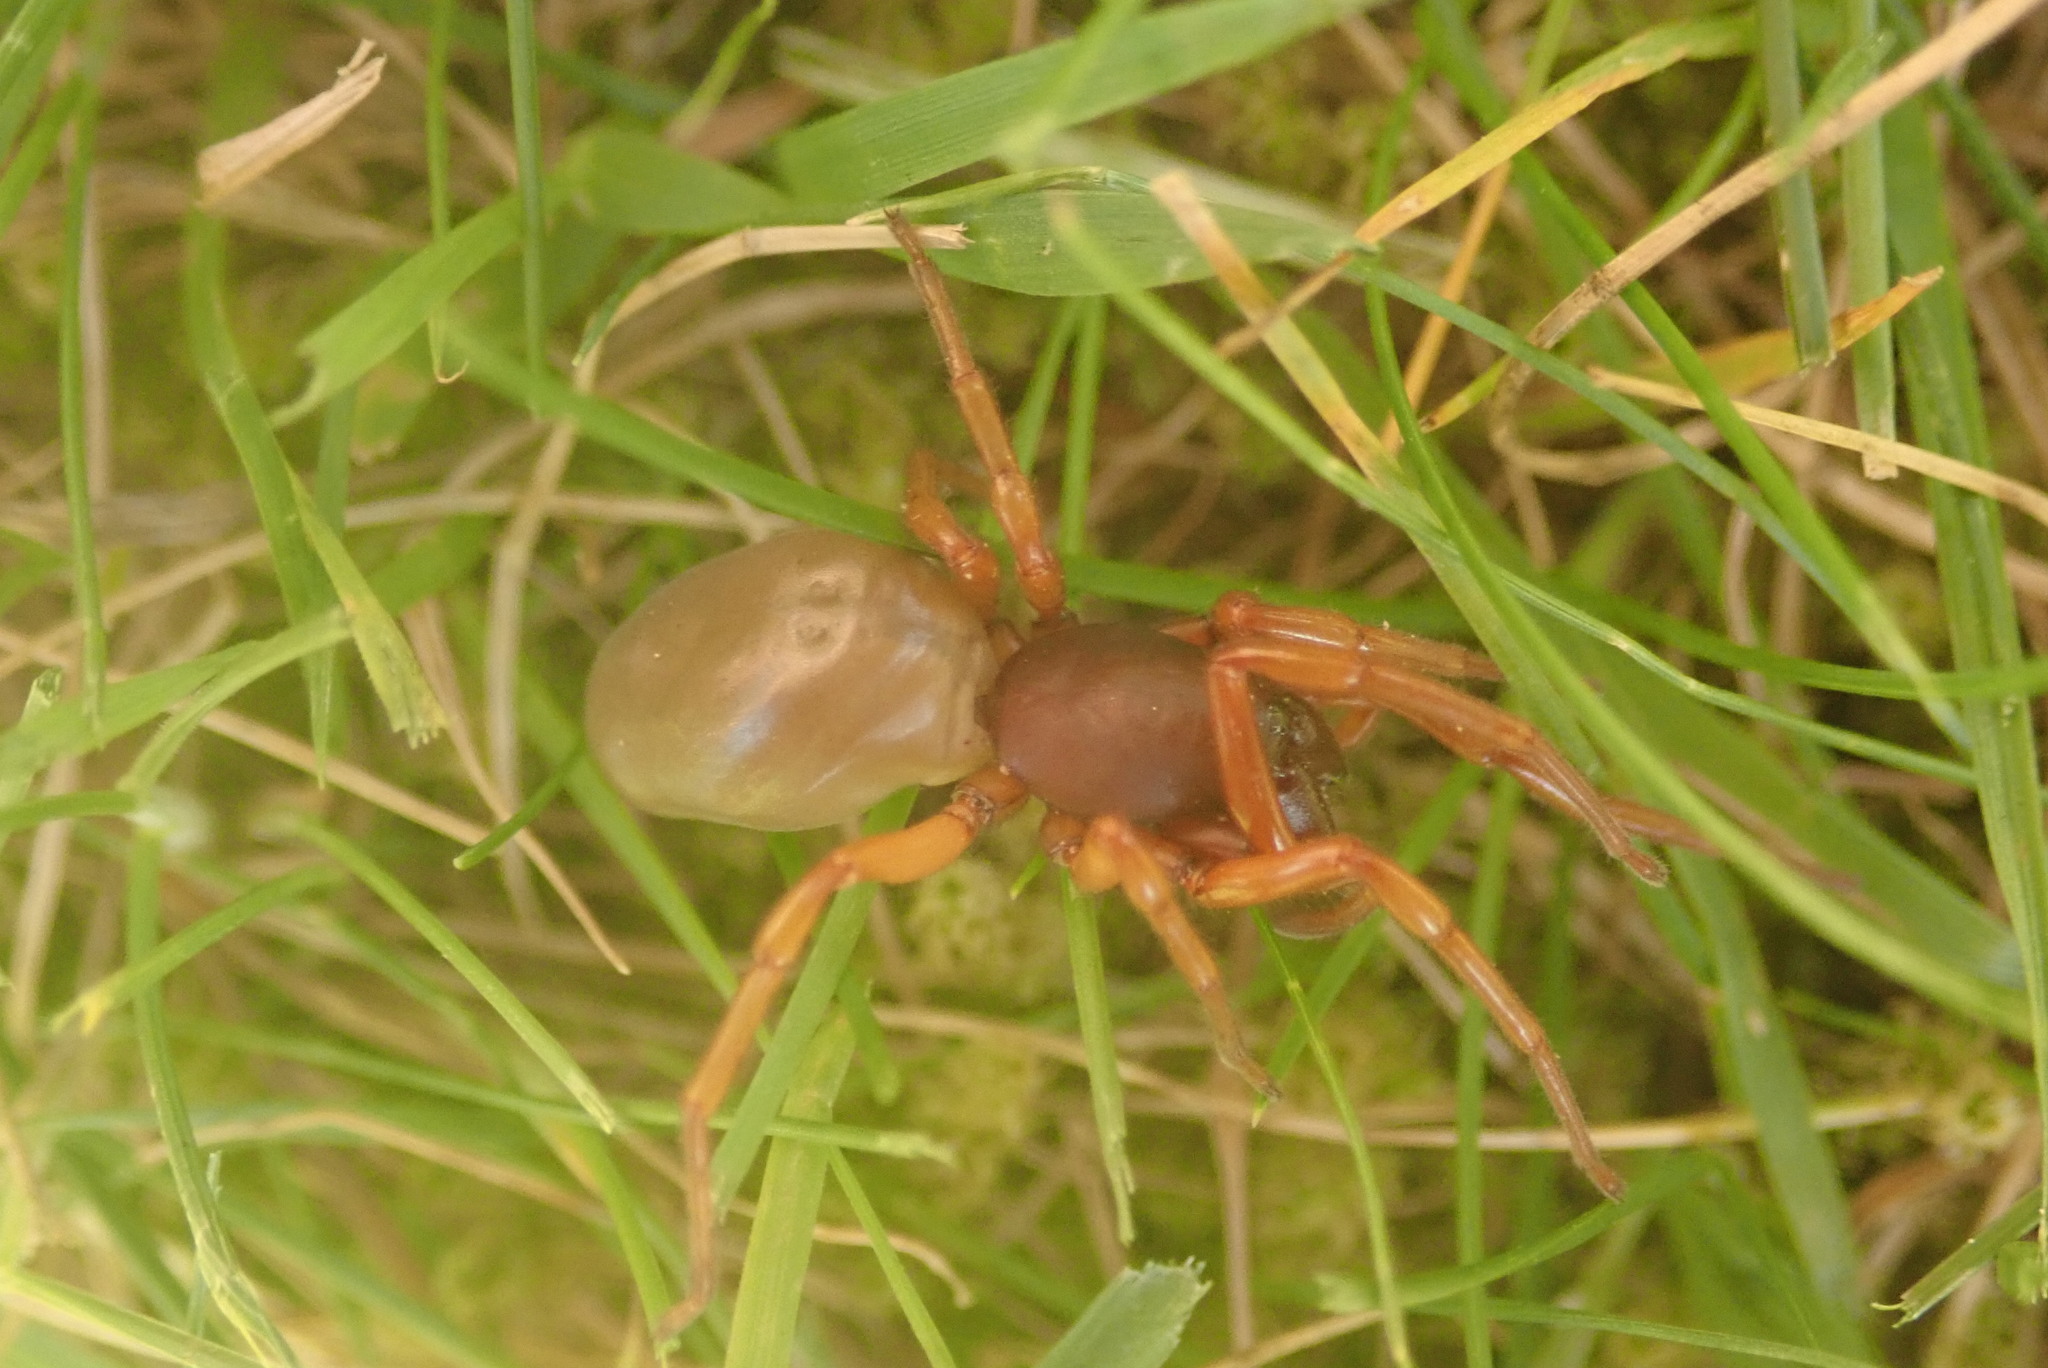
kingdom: Animalia
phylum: Arthropoda
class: Arachnida
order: Araneae
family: Dysderidae
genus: Dysdera
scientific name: Dysdera crocata
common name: Woodlouse spider
